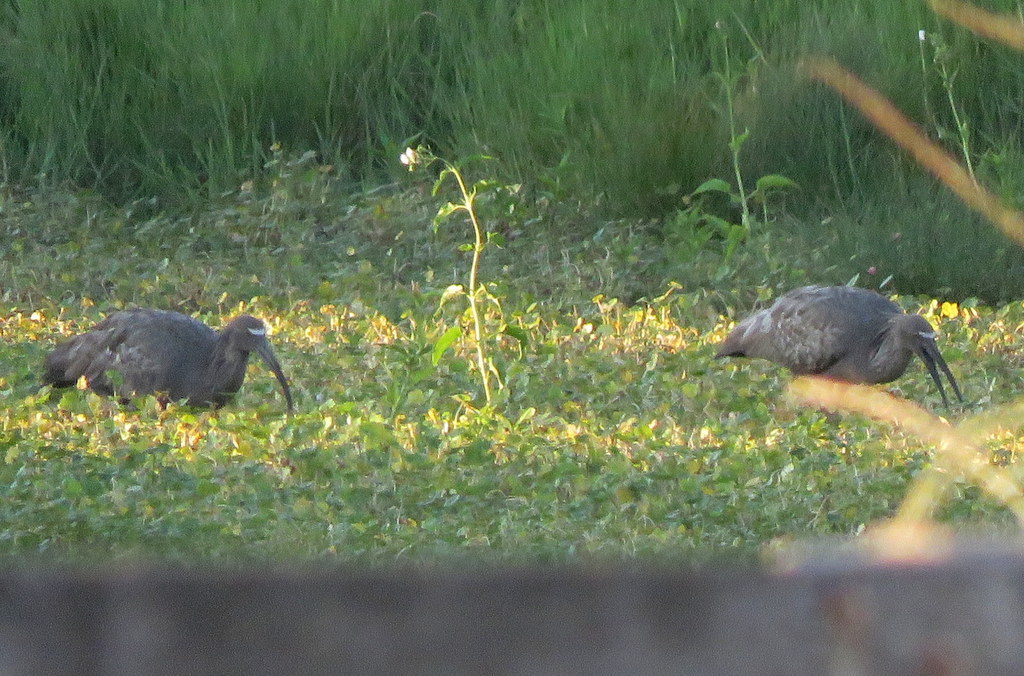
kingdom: Animalia
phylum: Chordata
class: Aves
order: Pelecaniformes
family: Threskiornithidae
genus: Theristicus
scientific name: Theristicus caerulescens
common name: Plumbeous ibis
